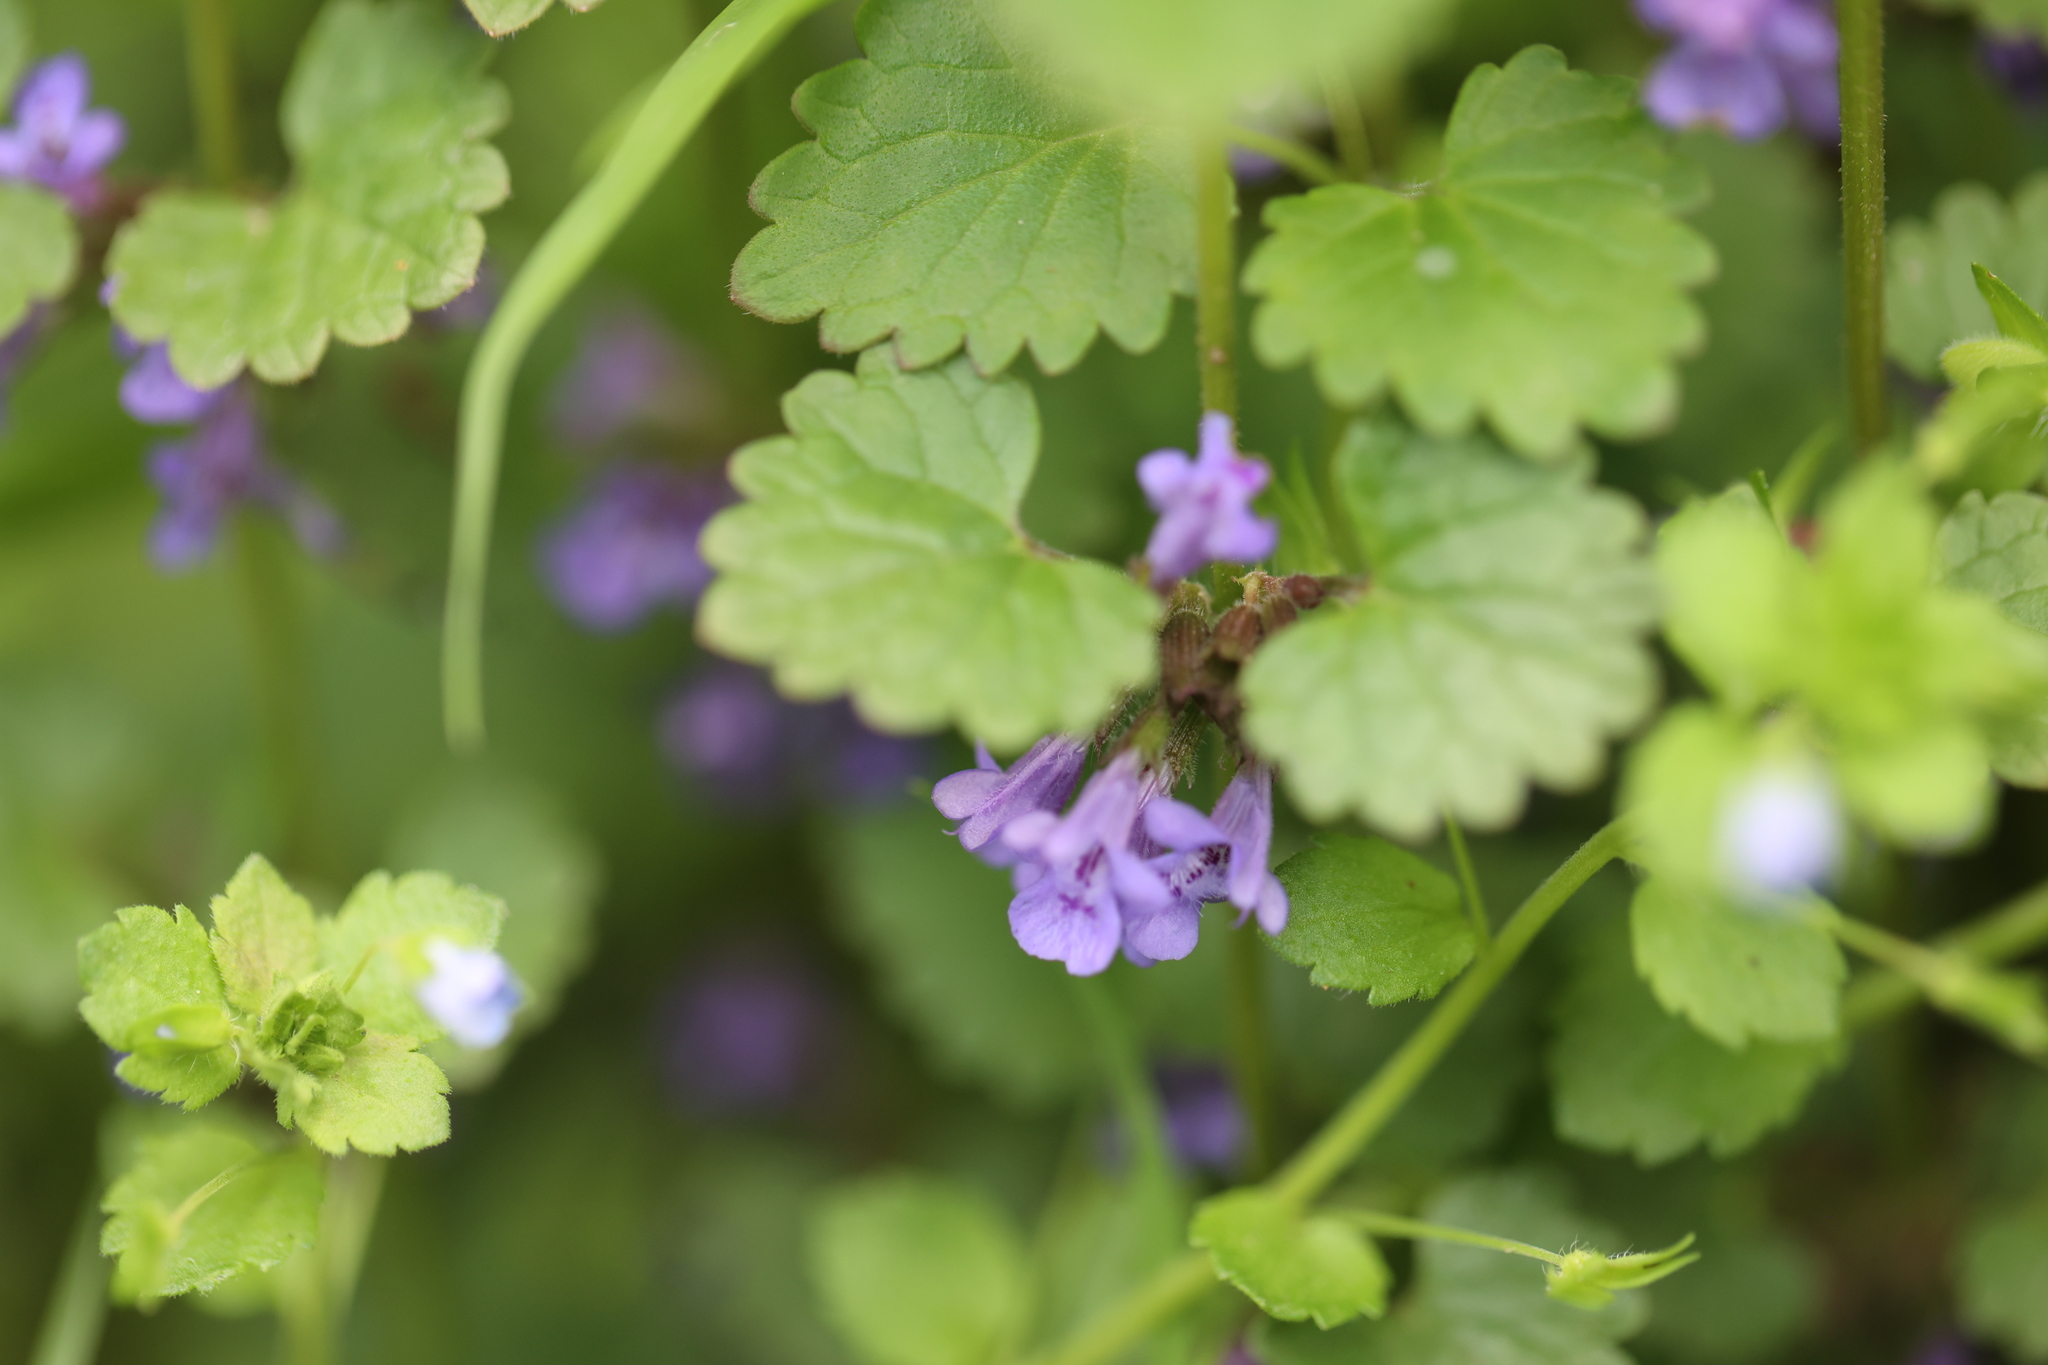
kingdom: Plantae
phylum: Tracheophyta
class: Magnoliopsida
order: Lamiales
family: Lamiaceae
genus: Glechoma
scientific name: Glechoma hederacea
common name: Ground ivy
